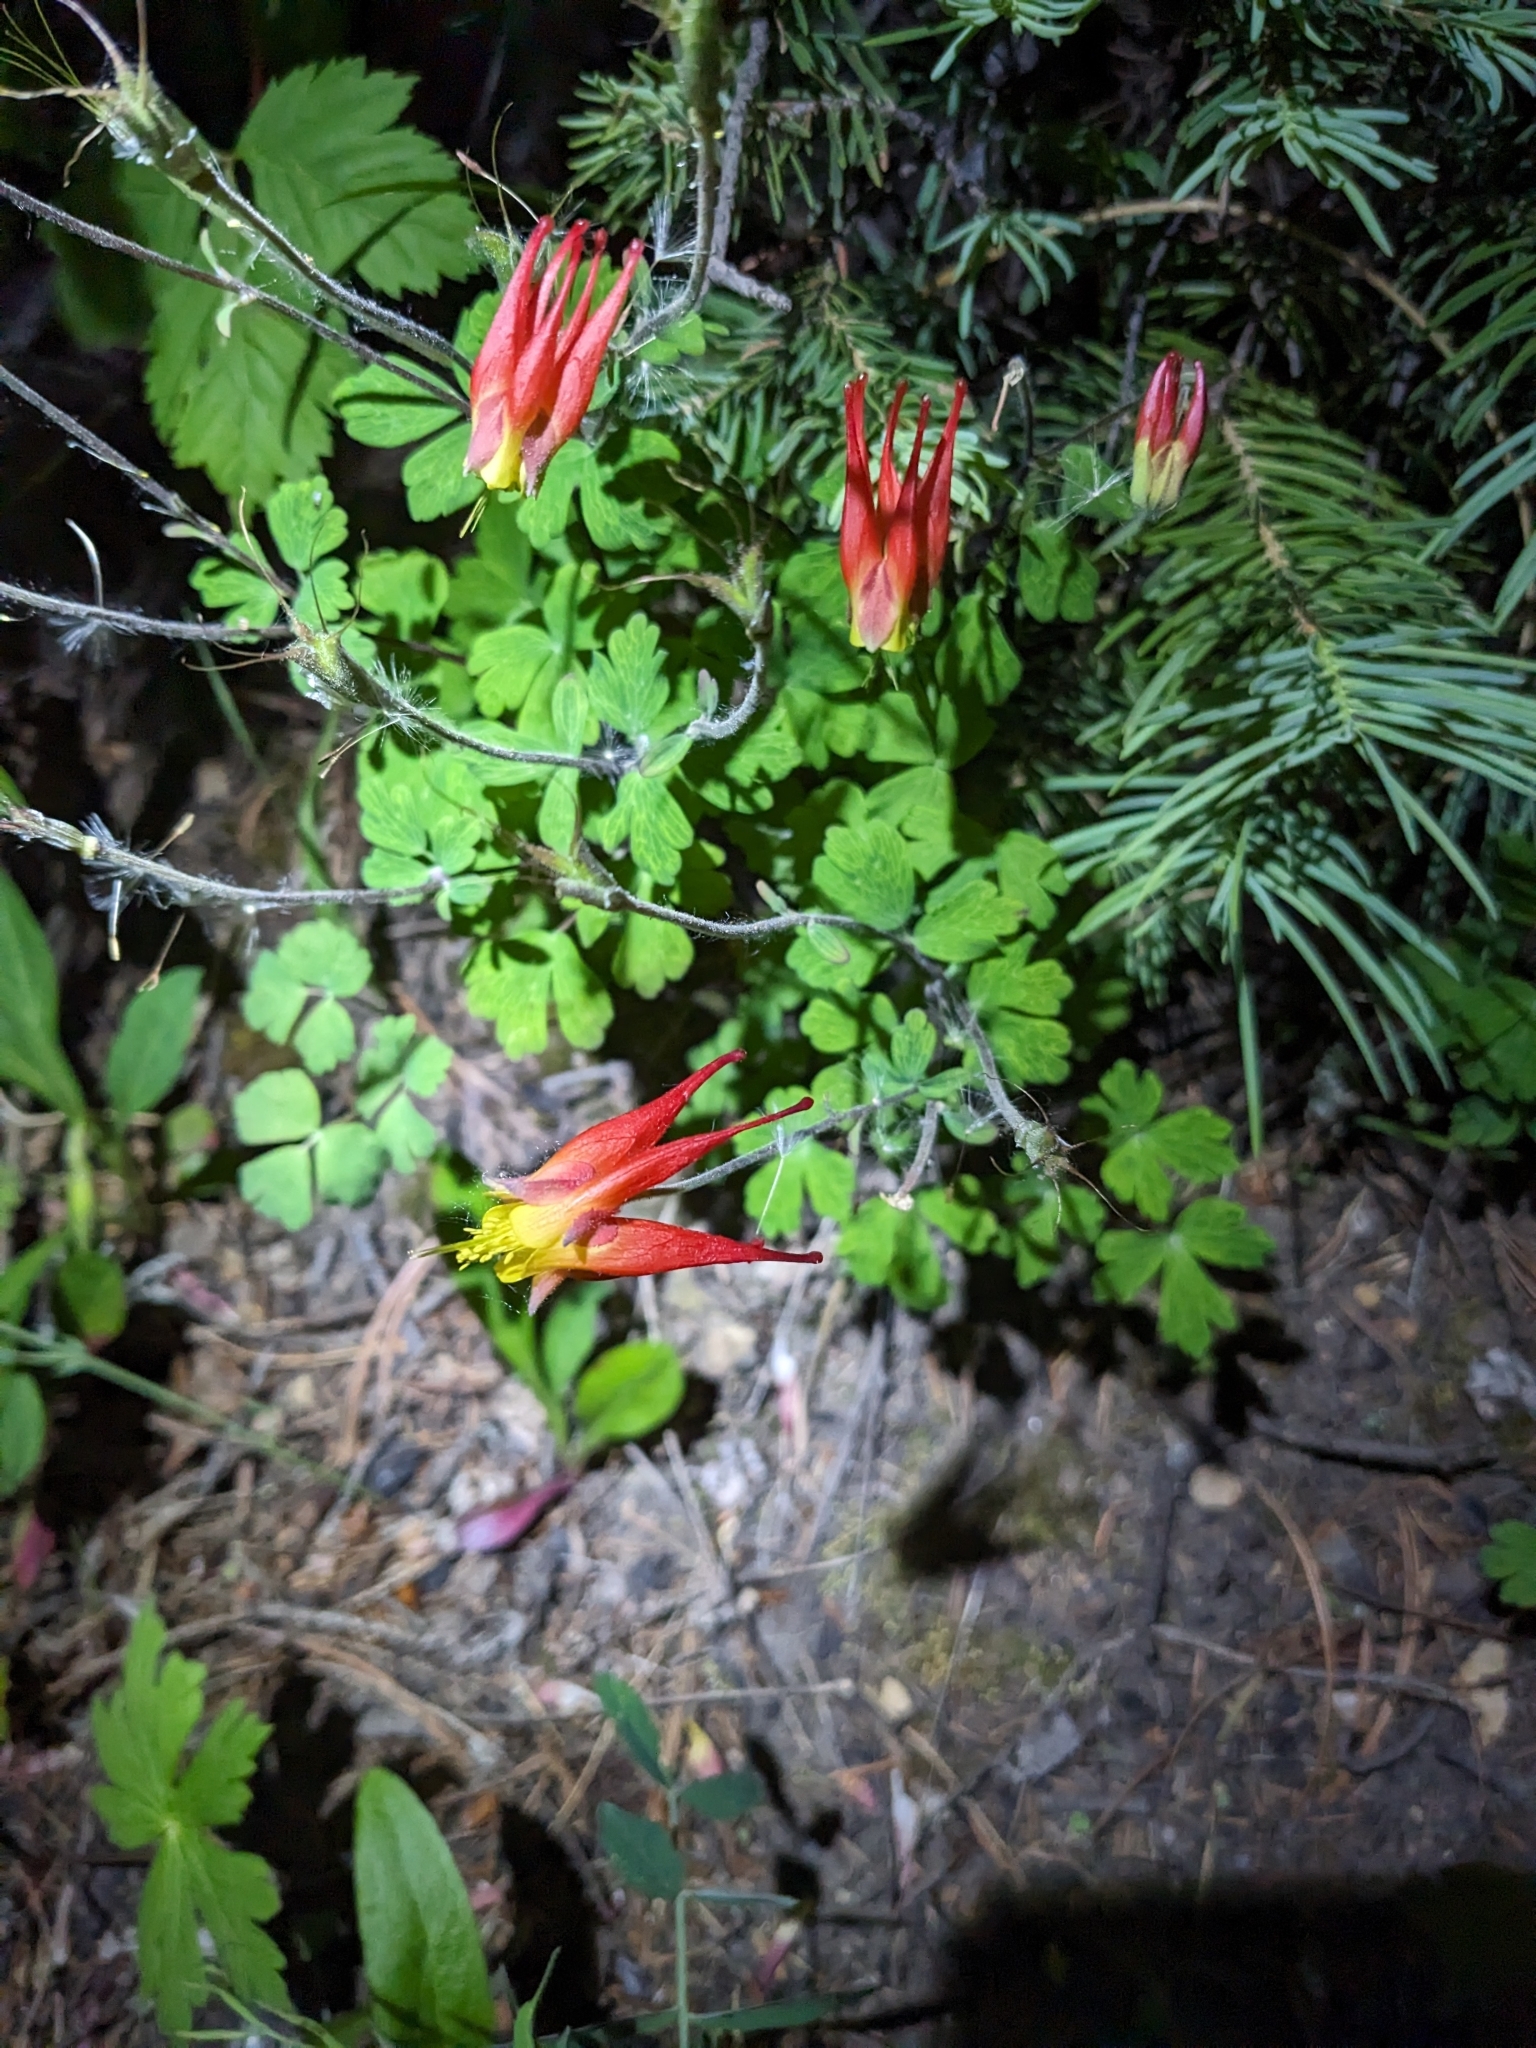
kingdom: Plantae
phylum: Tracheophyta
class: Magnoliopsida
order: Ranunculales
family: Ranunculaceae
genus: Aquilegia
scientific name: Aquilegia elegantula
